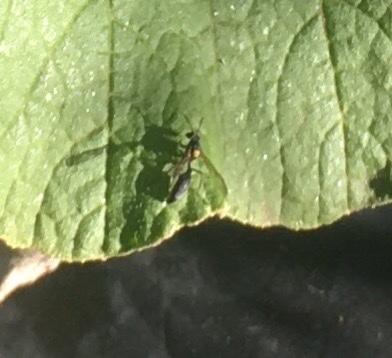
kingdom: Animalia
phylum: Arthropoda
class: Insecta
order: Hymenoptera
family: Eumenidae
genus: Polybia
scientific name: Polybia scutellaris
